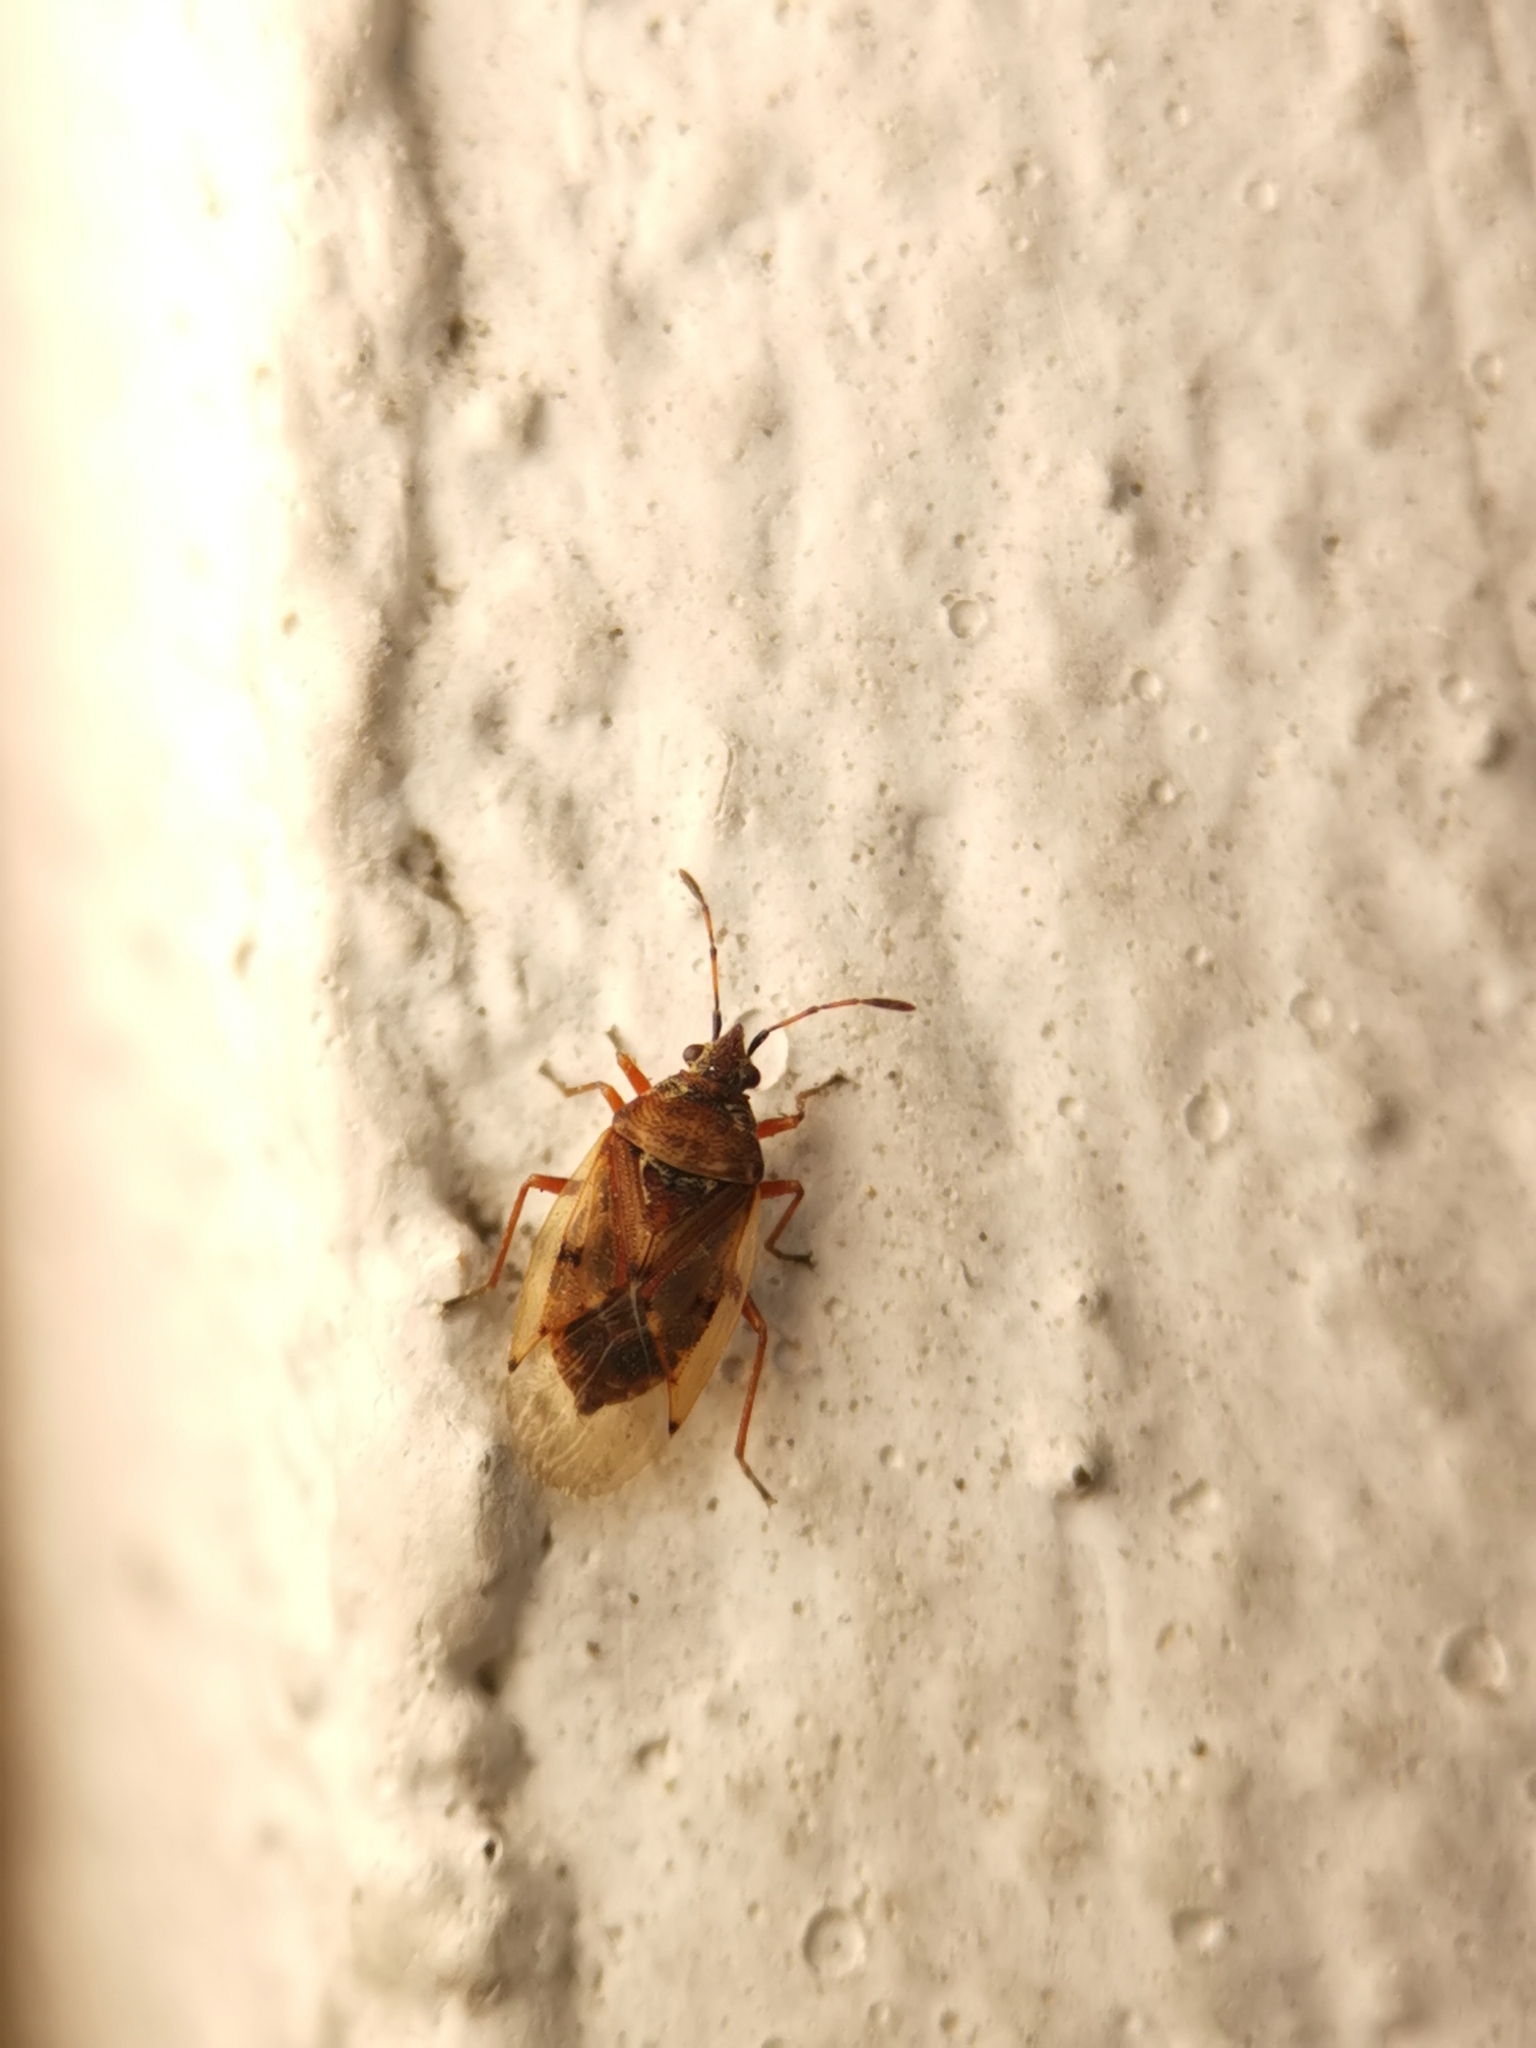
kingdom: Animalia
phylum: Arthropoda
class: Insecta
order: Hemiptera
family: Lygaeidae
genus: Kleidocerys
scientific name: Kleidocerys resedae
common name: Birch catkin bug
